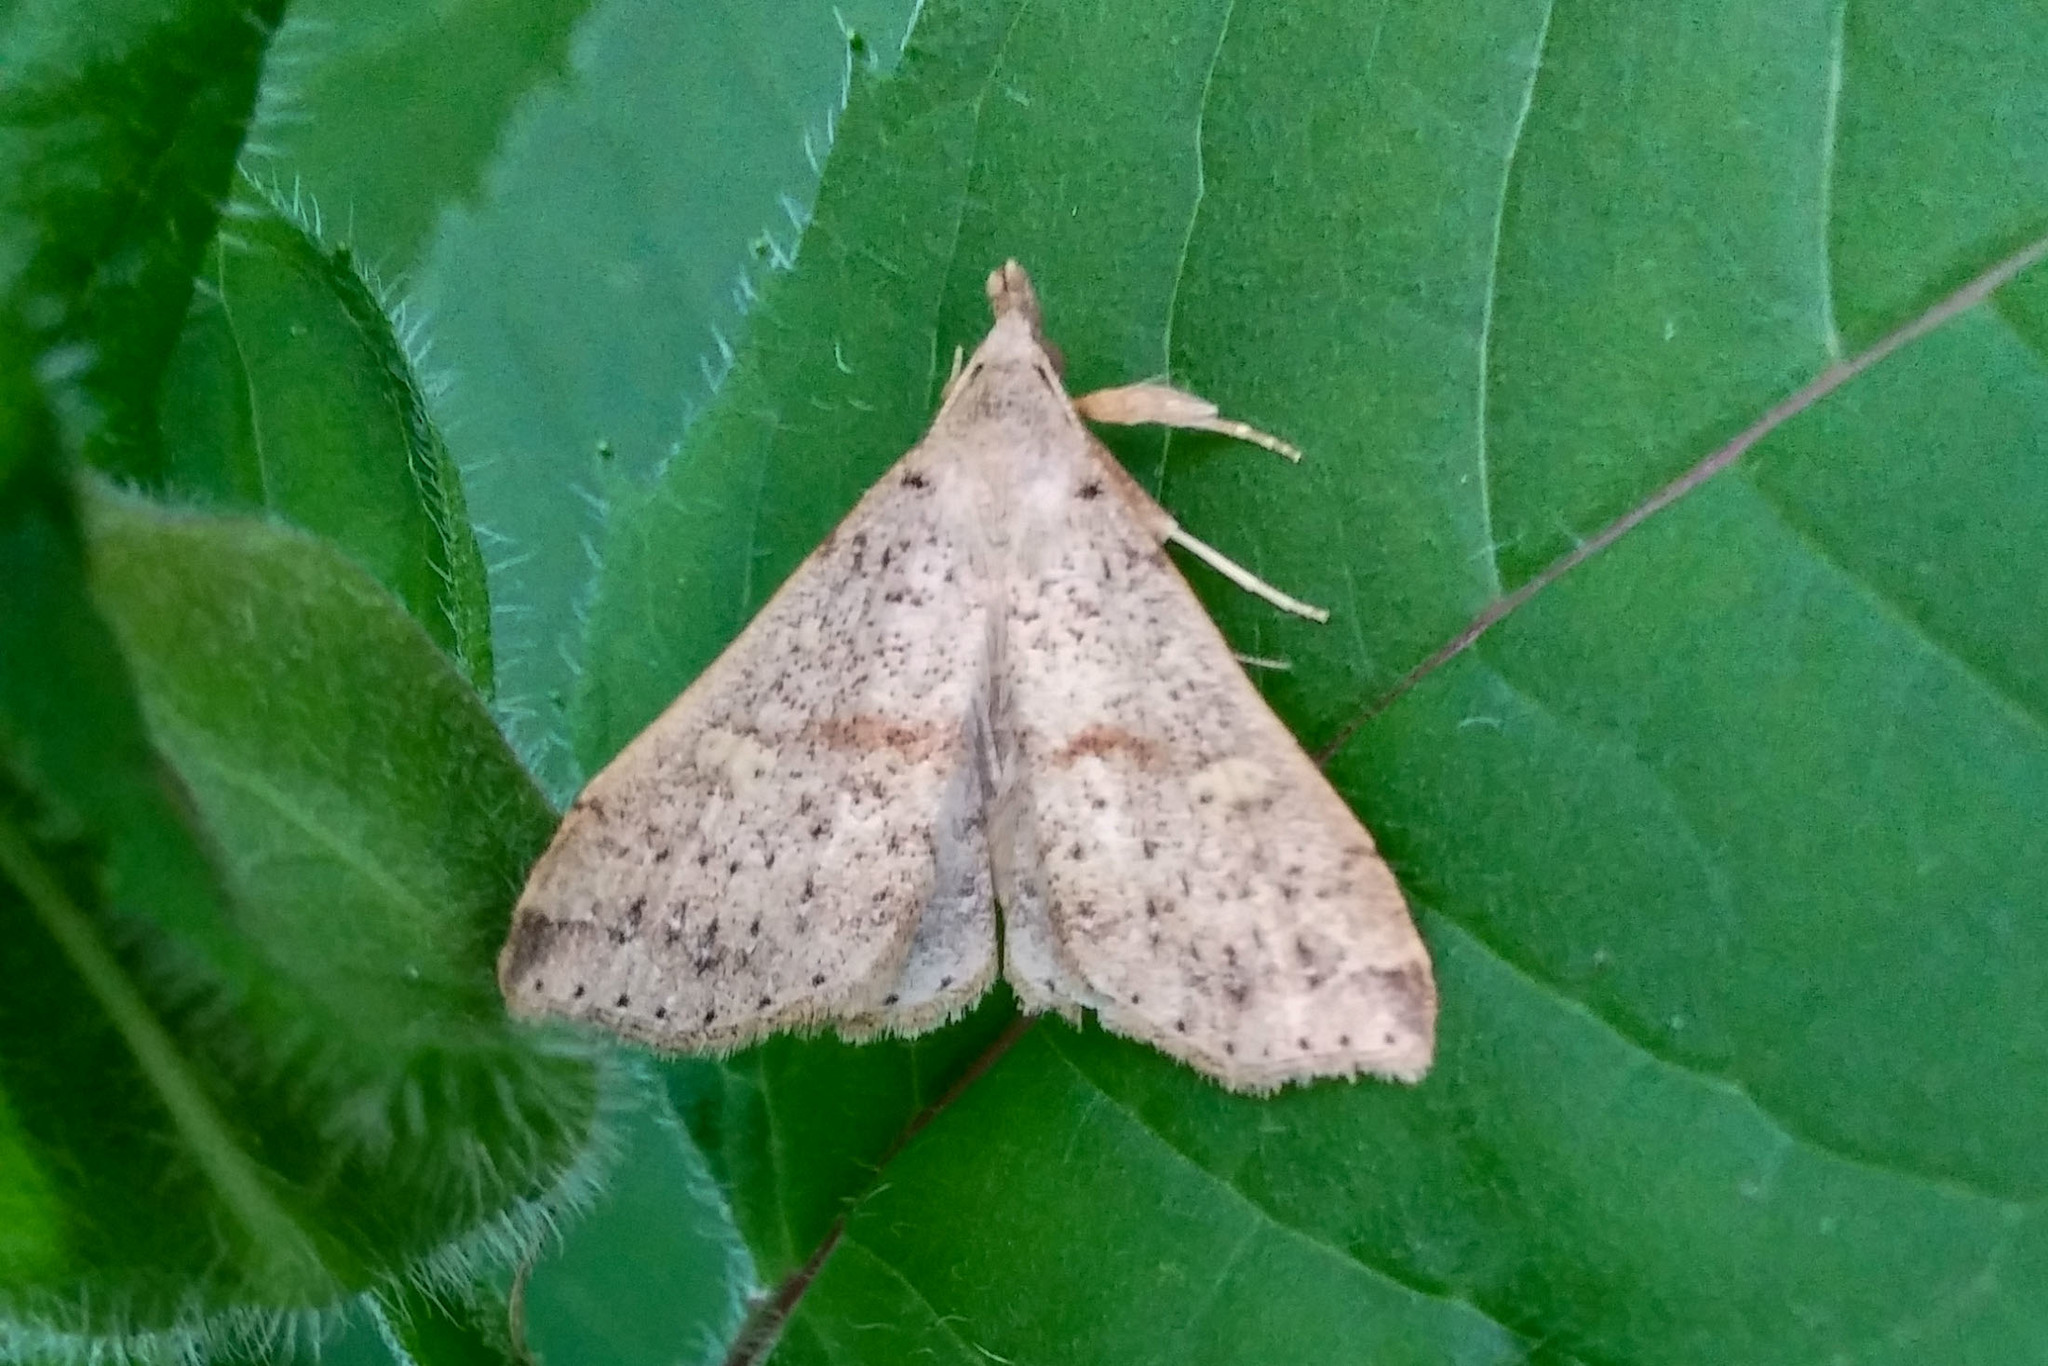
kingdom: Animalia
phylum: Arthropoda
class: Insecta
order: Lepidoptera
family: Erebidae
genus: Renia
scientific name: Renia salusalis
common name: Dotted renia moth
